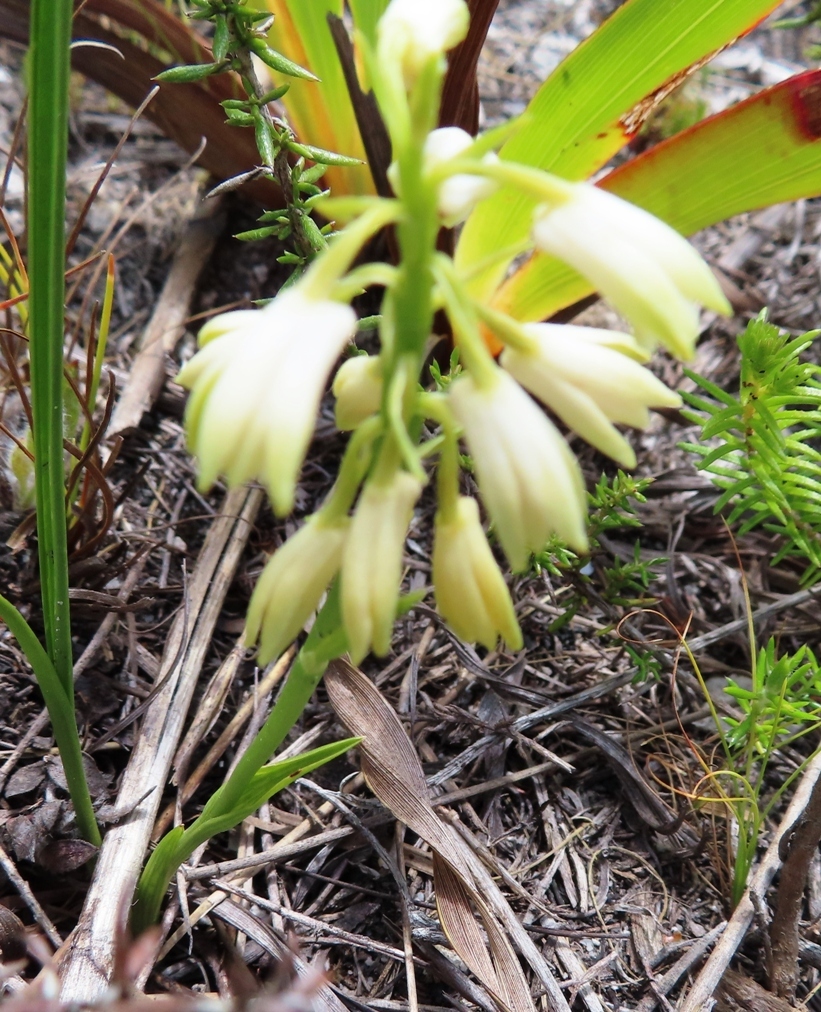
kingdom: Plantae
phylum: Tracheophyta
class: Liliopsida
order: Asparagales
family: Orchidaceae
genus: Eulophia
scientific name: Eulophia aculeata
